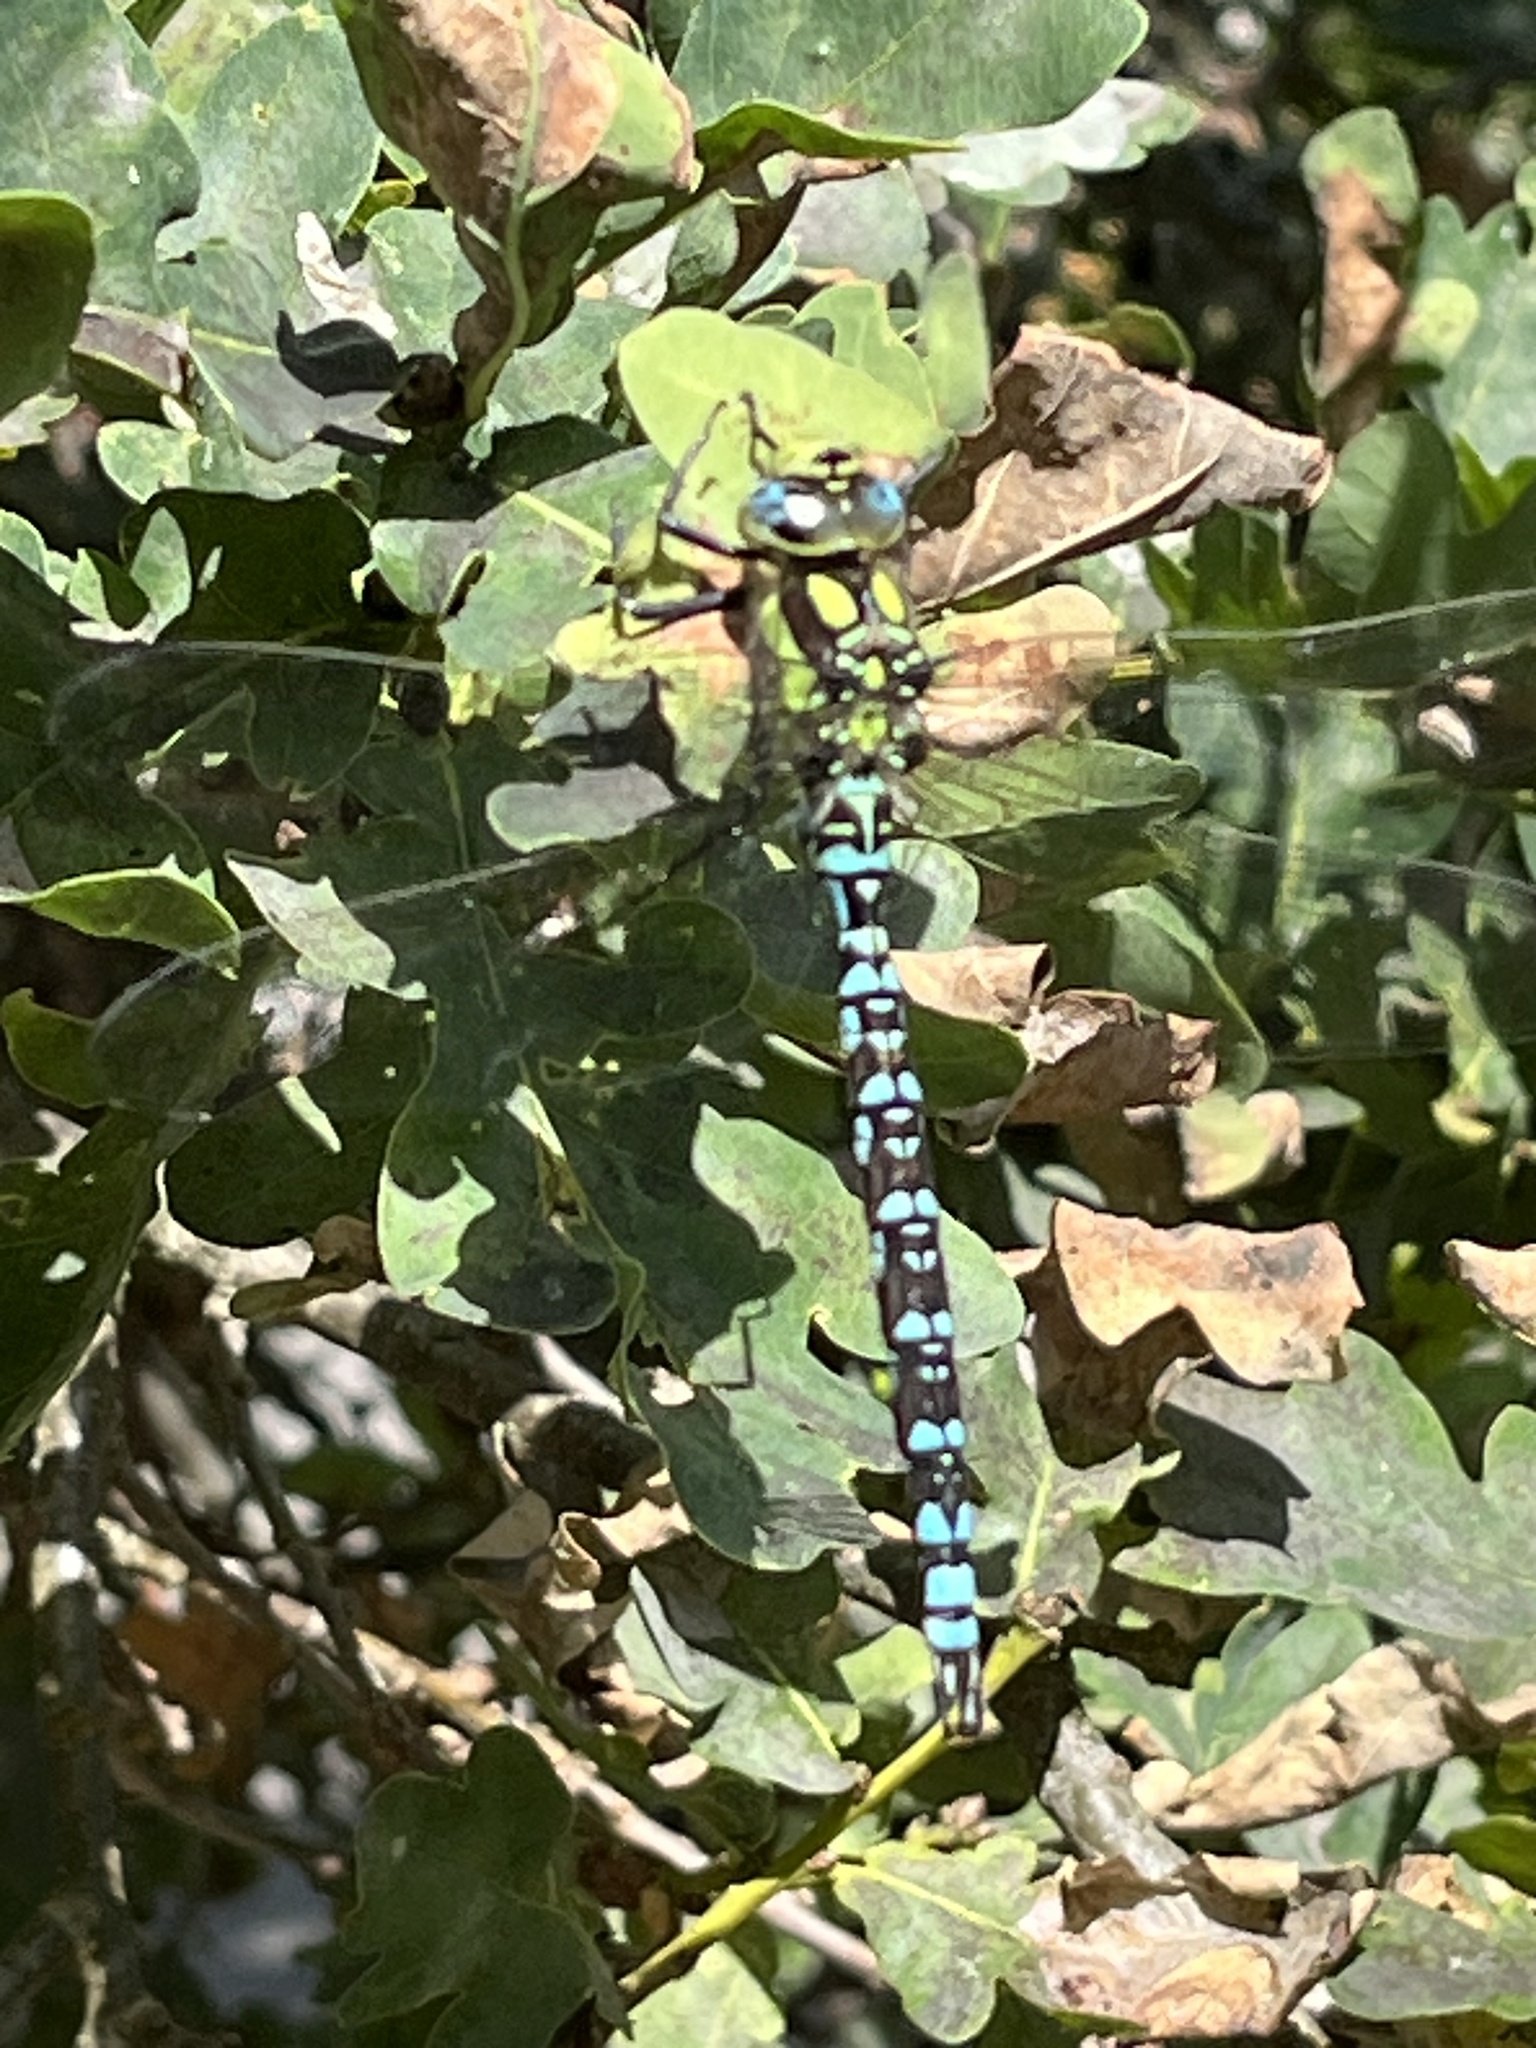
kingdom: Animalia
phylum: Arthropoda
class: Insecta
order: Odonata
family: Aeshnidae
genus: Aeshna
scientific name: Aeshna cyanea
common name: Southern hawker
